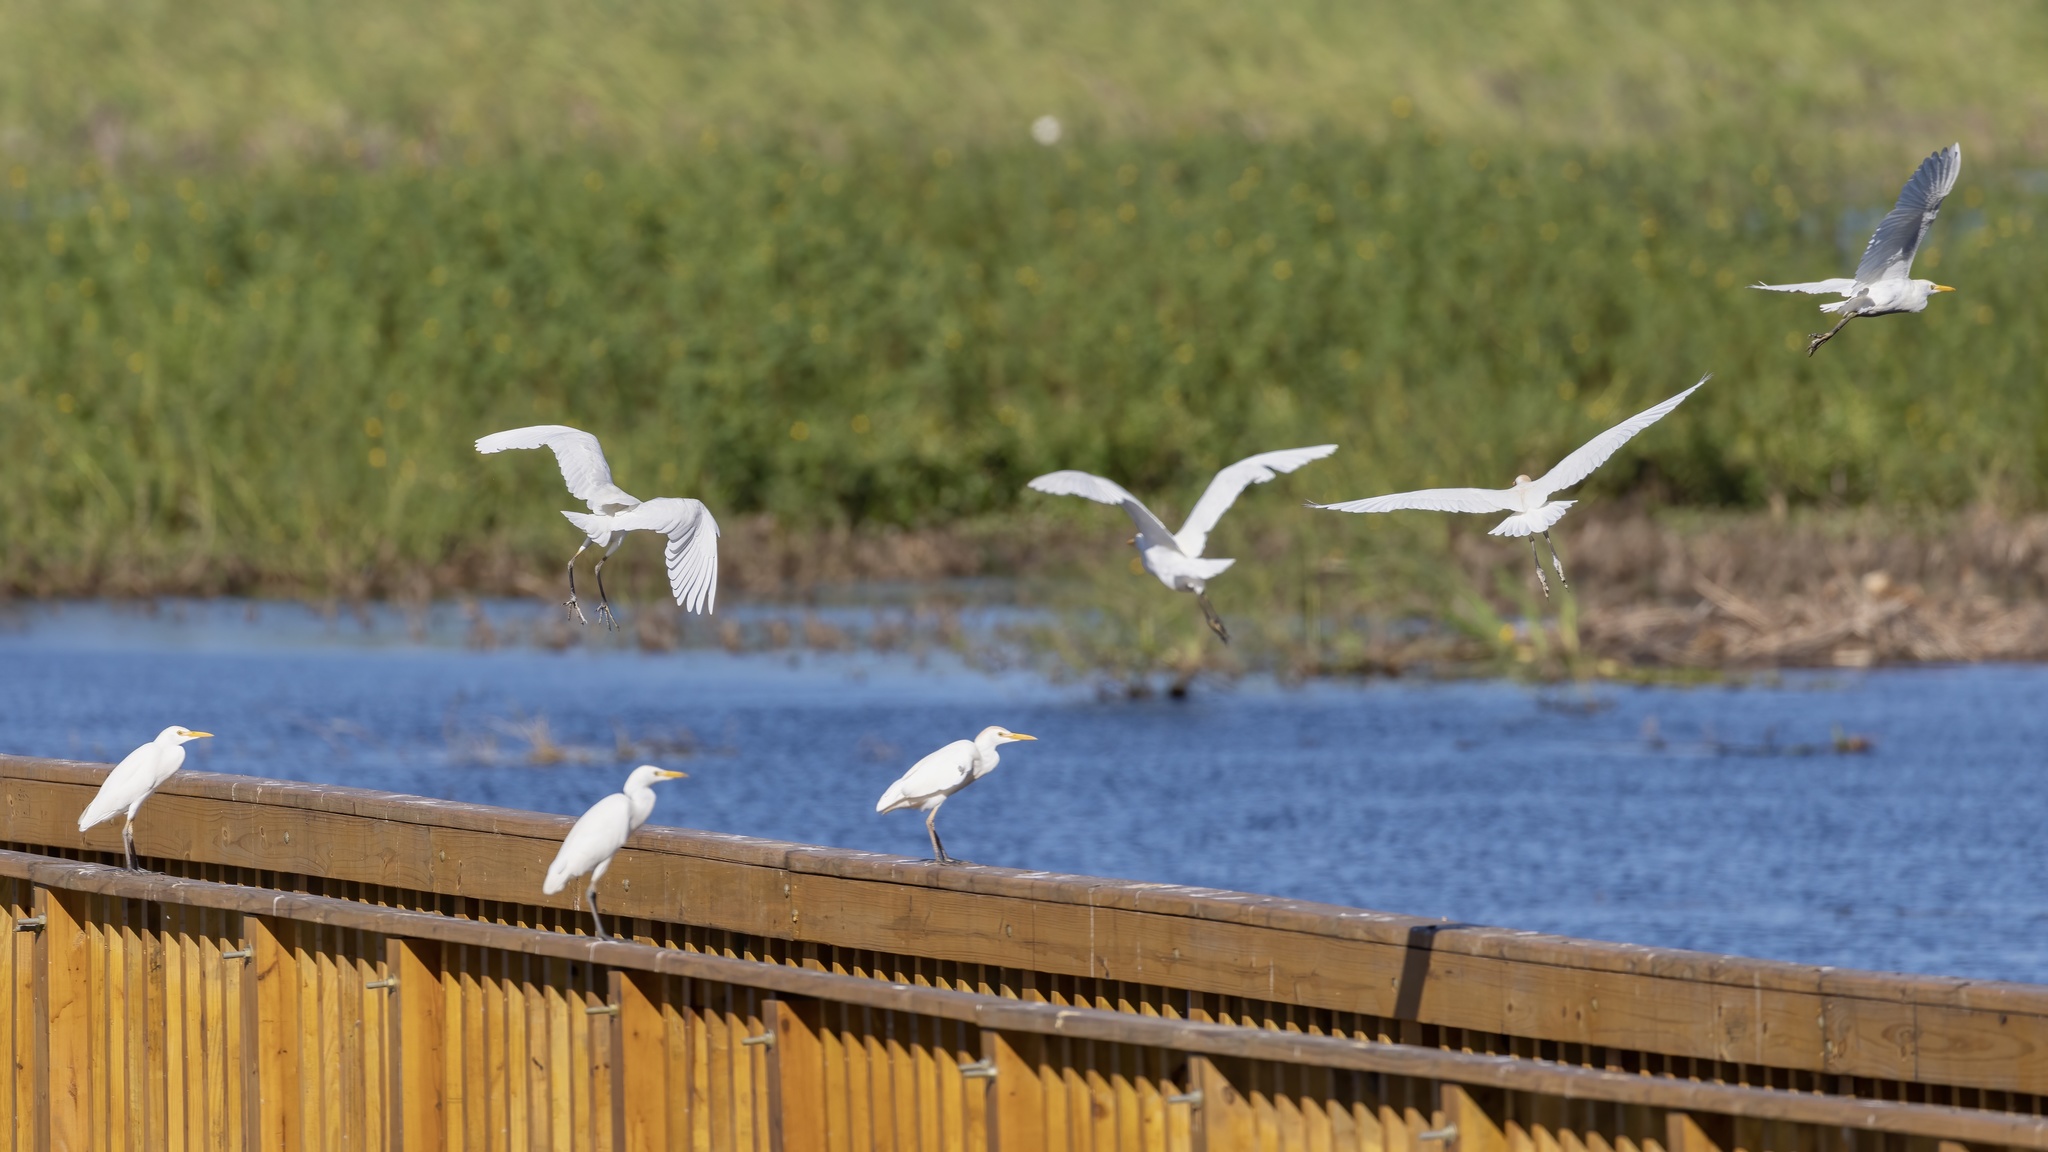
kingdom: Animalia
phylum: Chordata
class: Aves
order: Pelecaniformes
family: Ardeidae
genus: Bubulcus
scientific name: Bubulcus ibis
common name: Cattle egret
